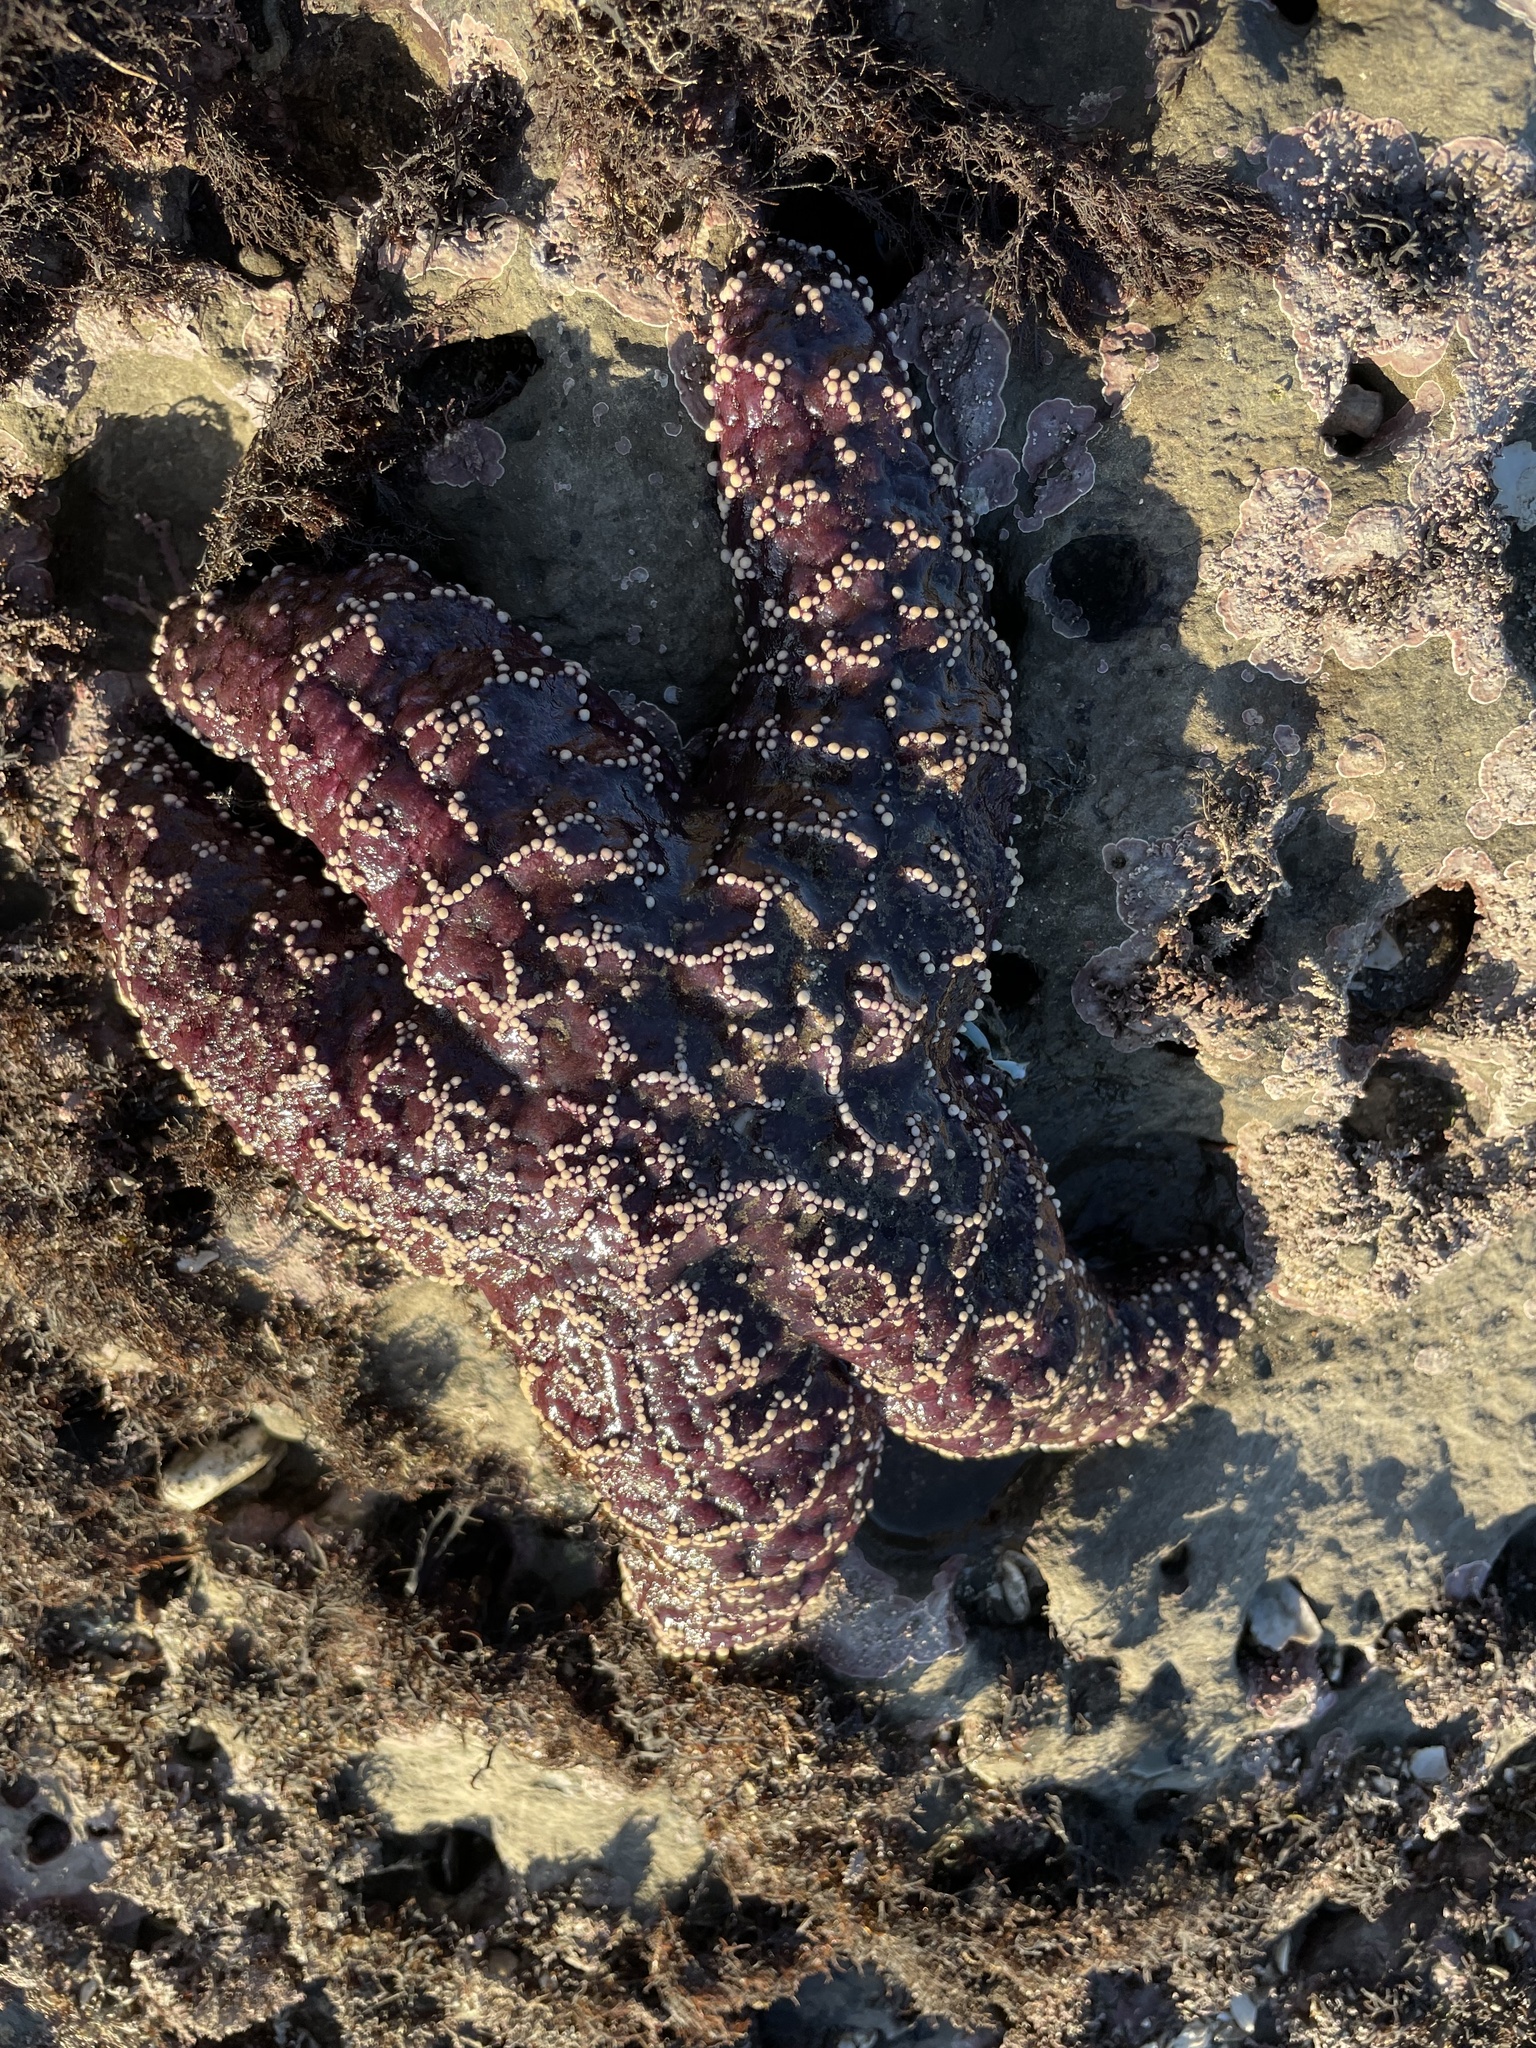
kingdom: Animalia
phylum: Echinodermata
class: Asteroidea
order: Forcipulatida
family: Asteriidae
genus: Pisaster
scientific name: Pisaster ochraceus
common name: Ochre stars
